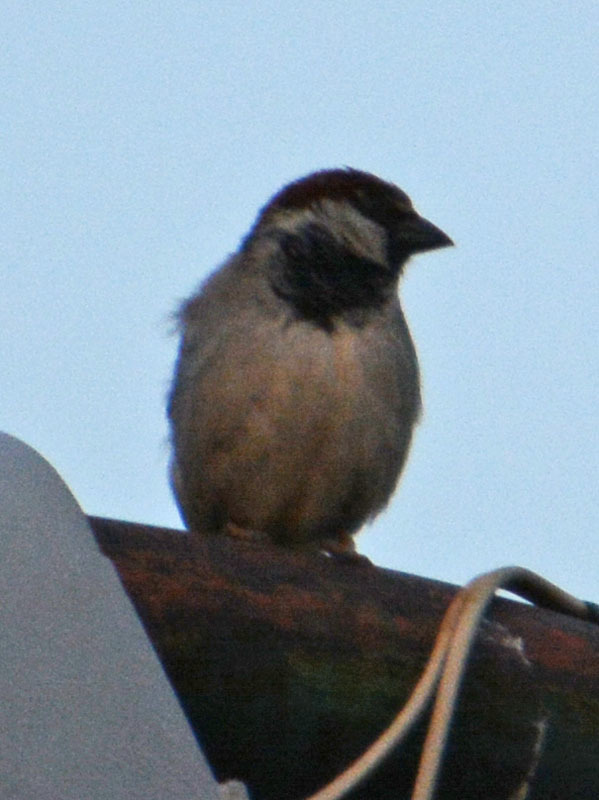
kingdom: Animalia
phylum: Chordata
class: Aves
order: Passeriformes
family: Passeridae
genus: Passer
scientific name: Passer domesticus
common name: House sparrow
